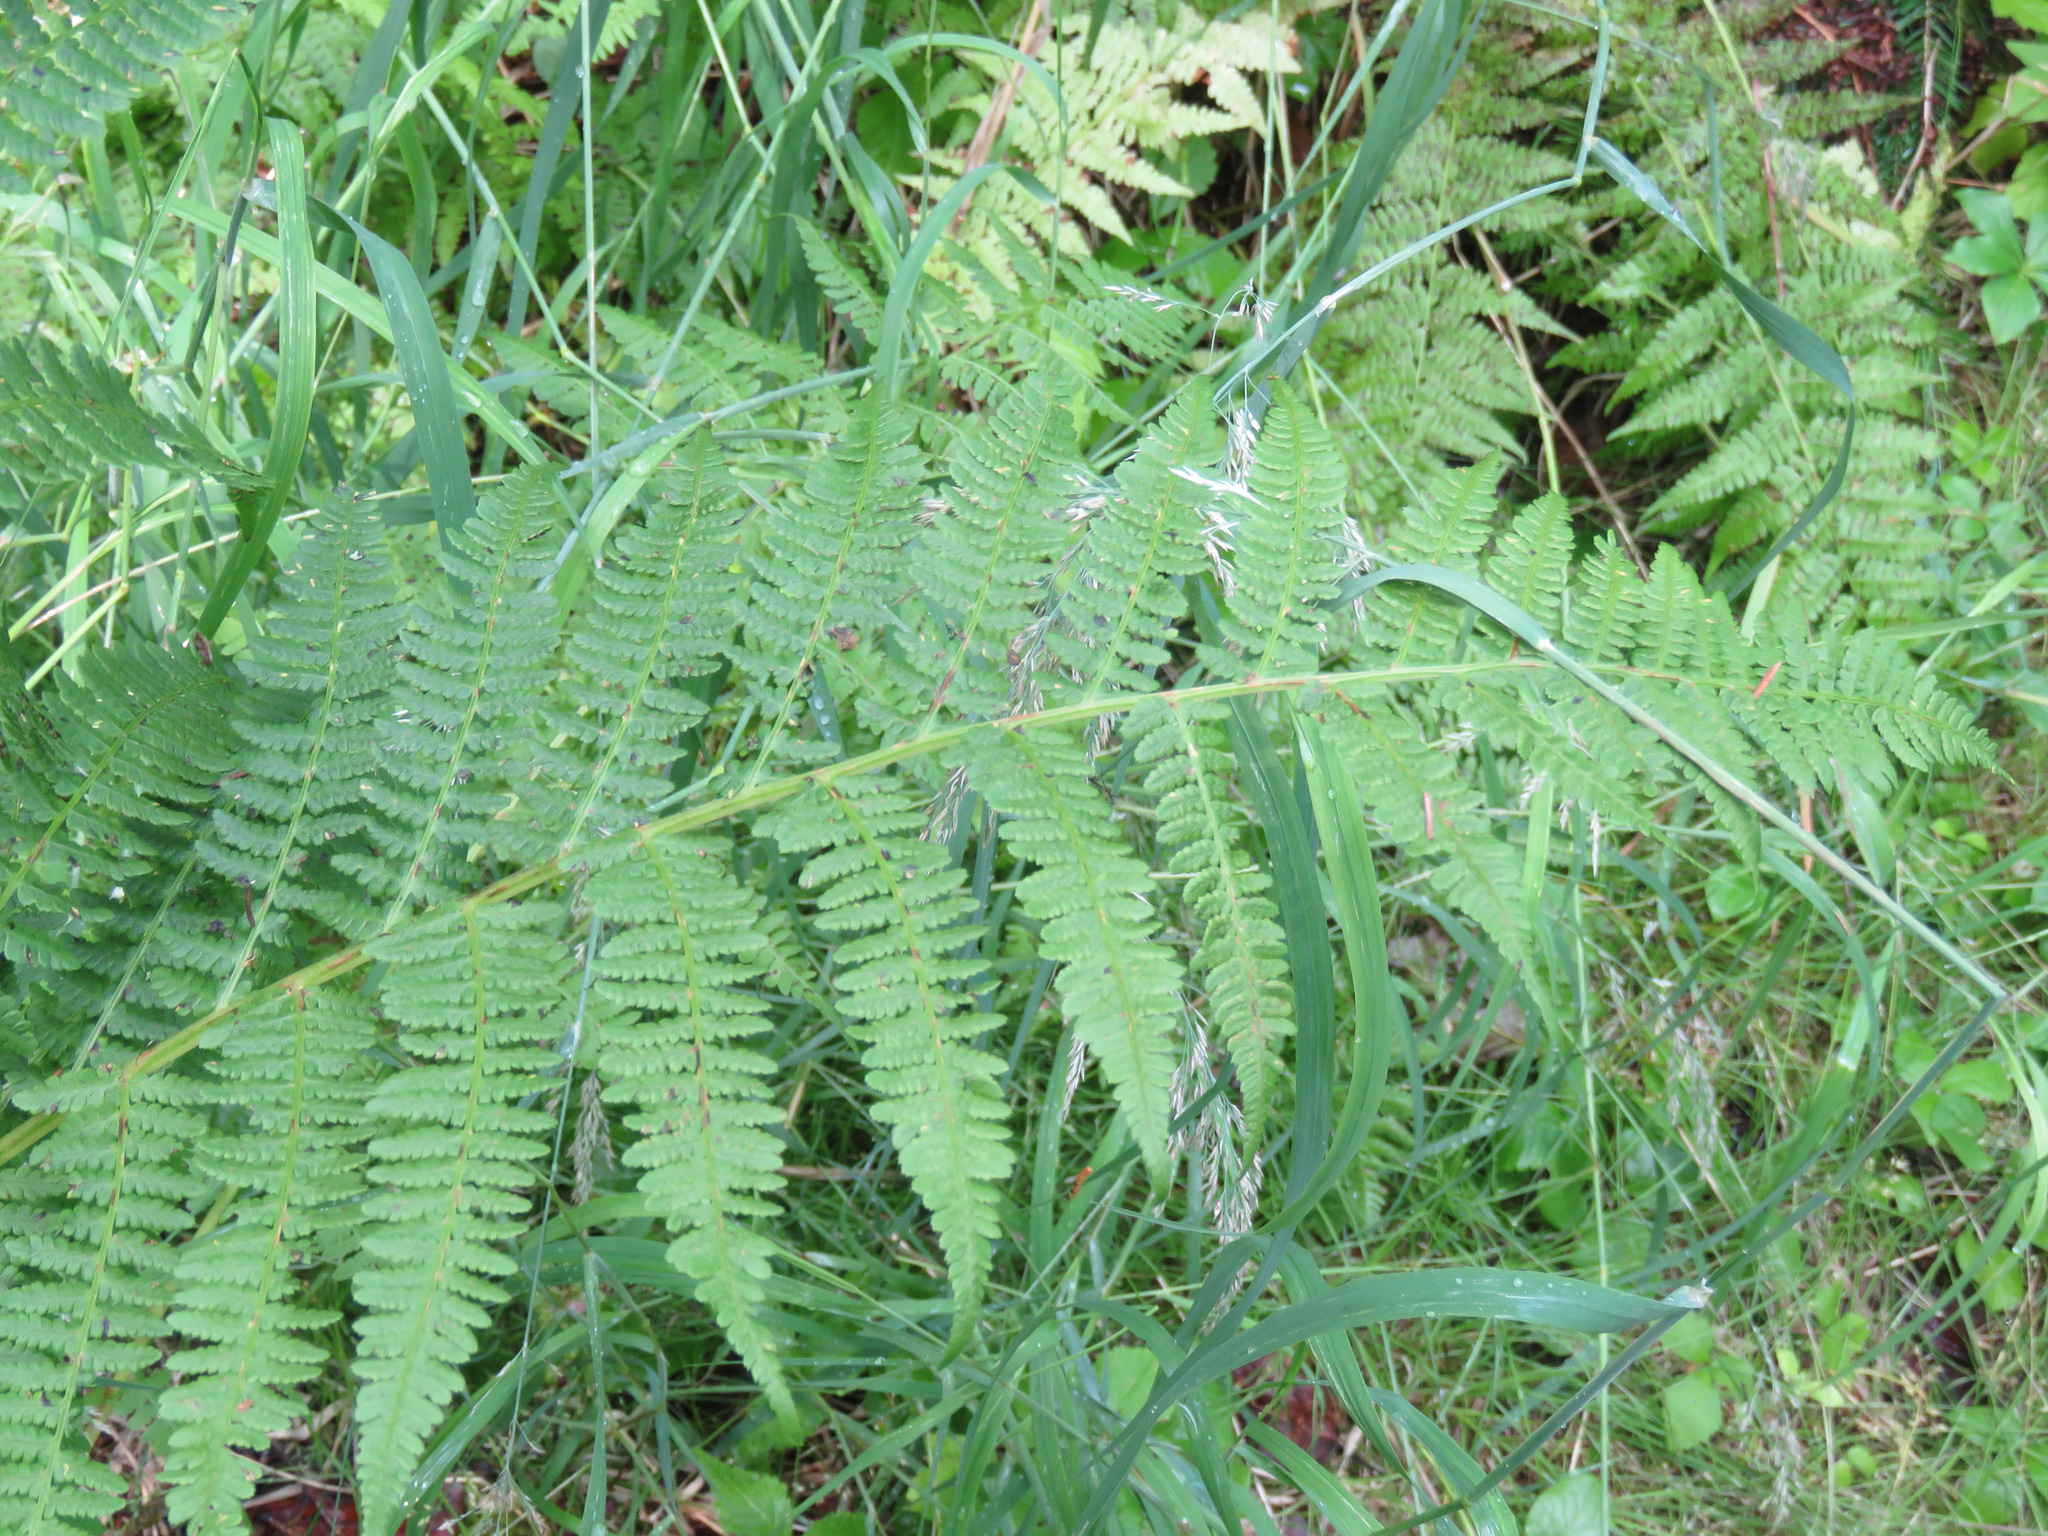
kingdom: Plantae
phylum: Tracheophyta
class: Polypodiopsida
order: Polypodiales
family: Athyriaceae
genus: Athyrium
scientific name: Athyrium filix-femina
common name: Lady fern
